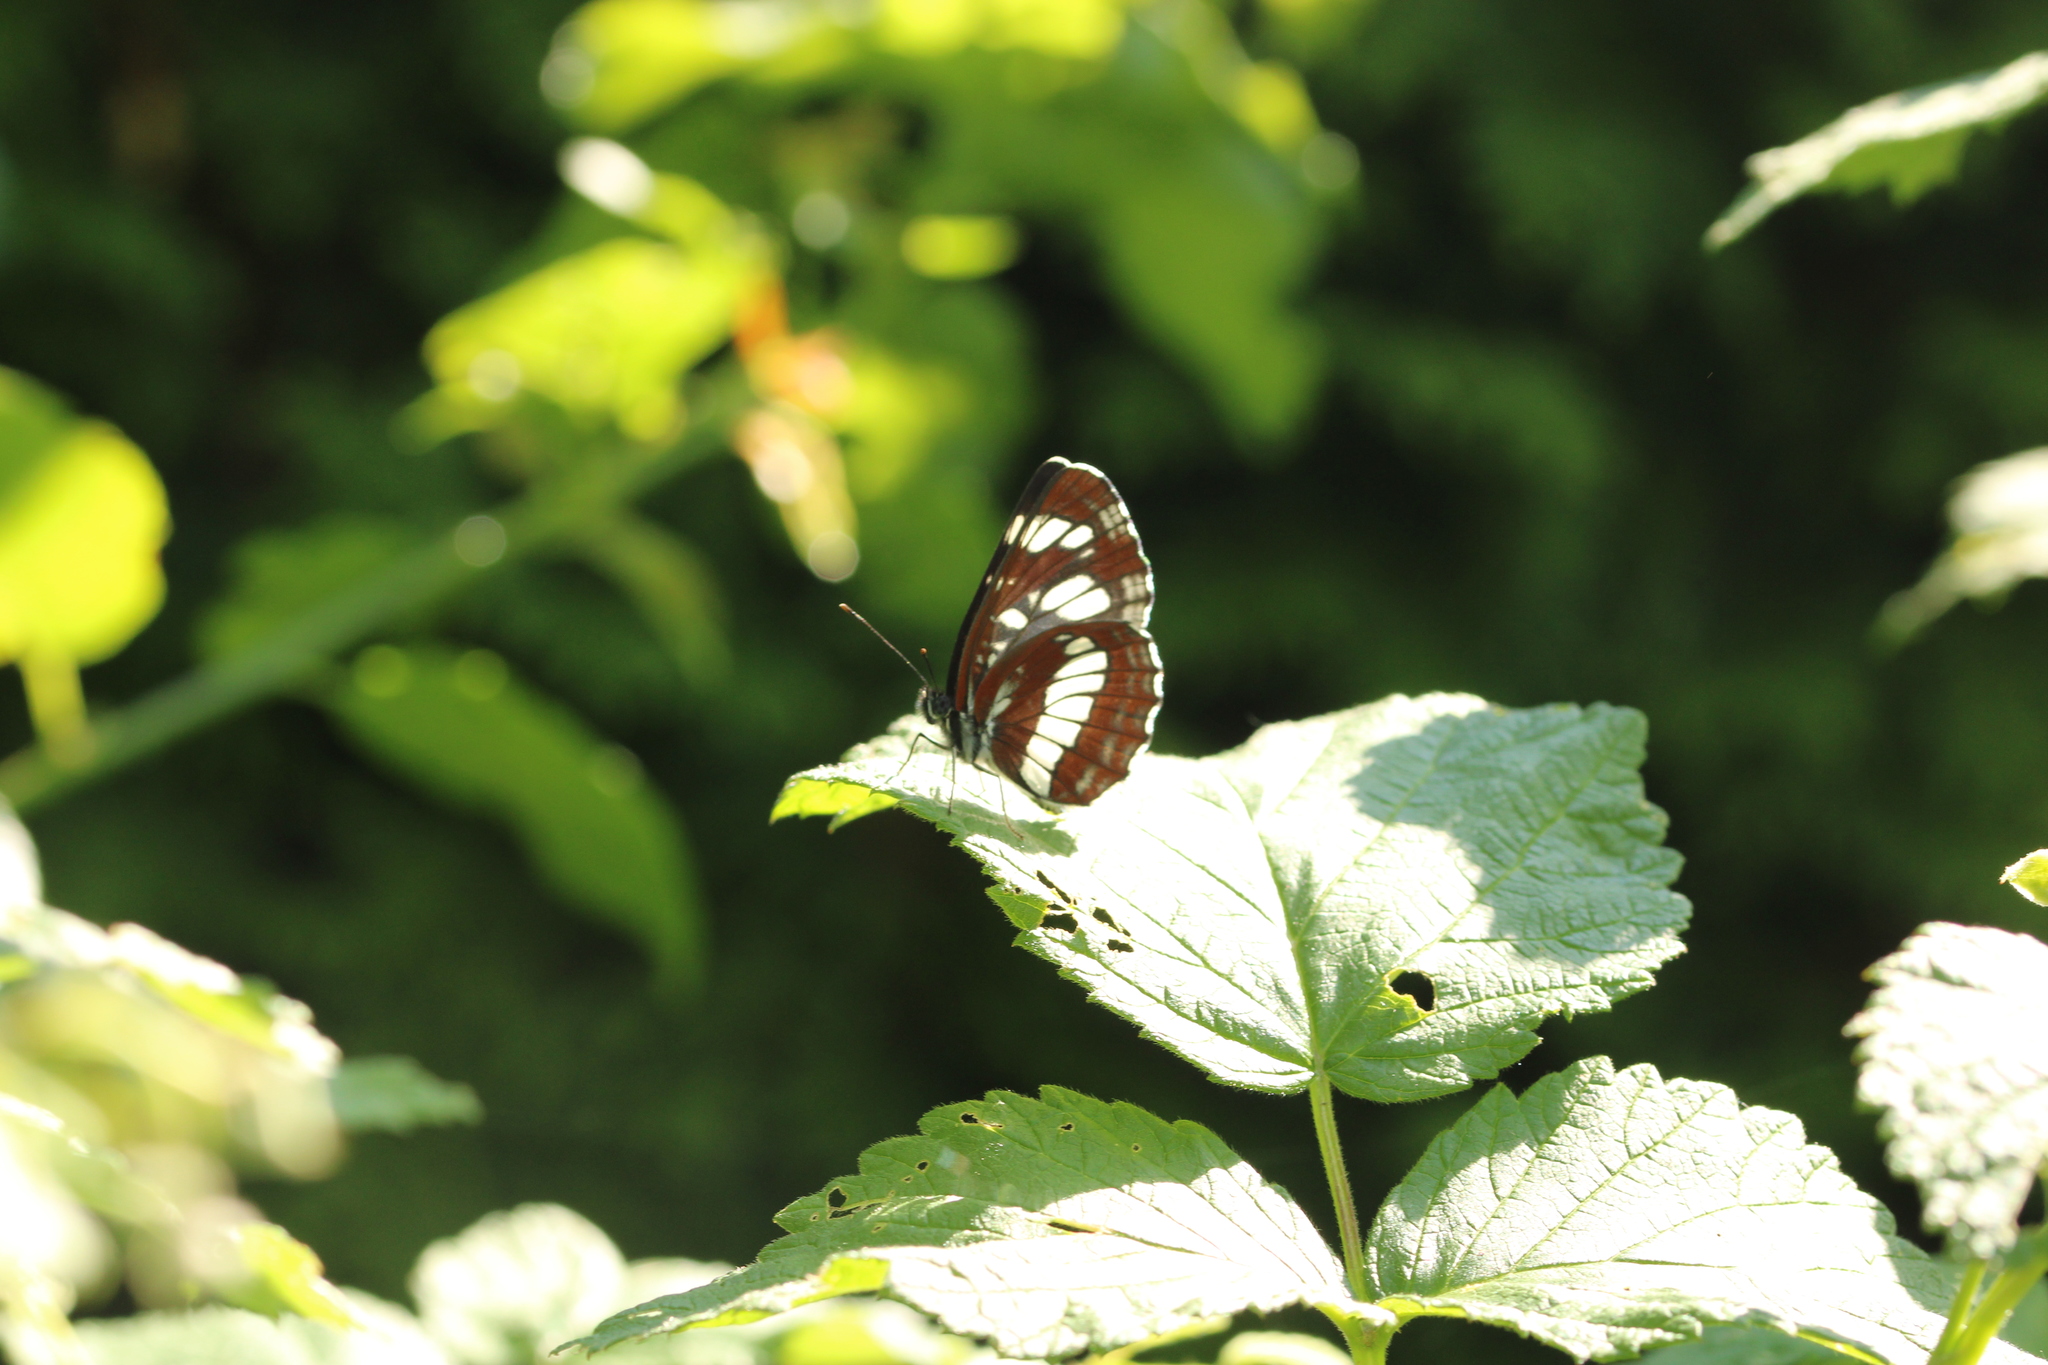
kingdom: Animalia
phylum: Arthropoda
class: Insecta
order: Lepidoptera
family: Nymphalidae
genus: Neptis
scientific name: Neptis rivularis
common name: Hungarian glider
